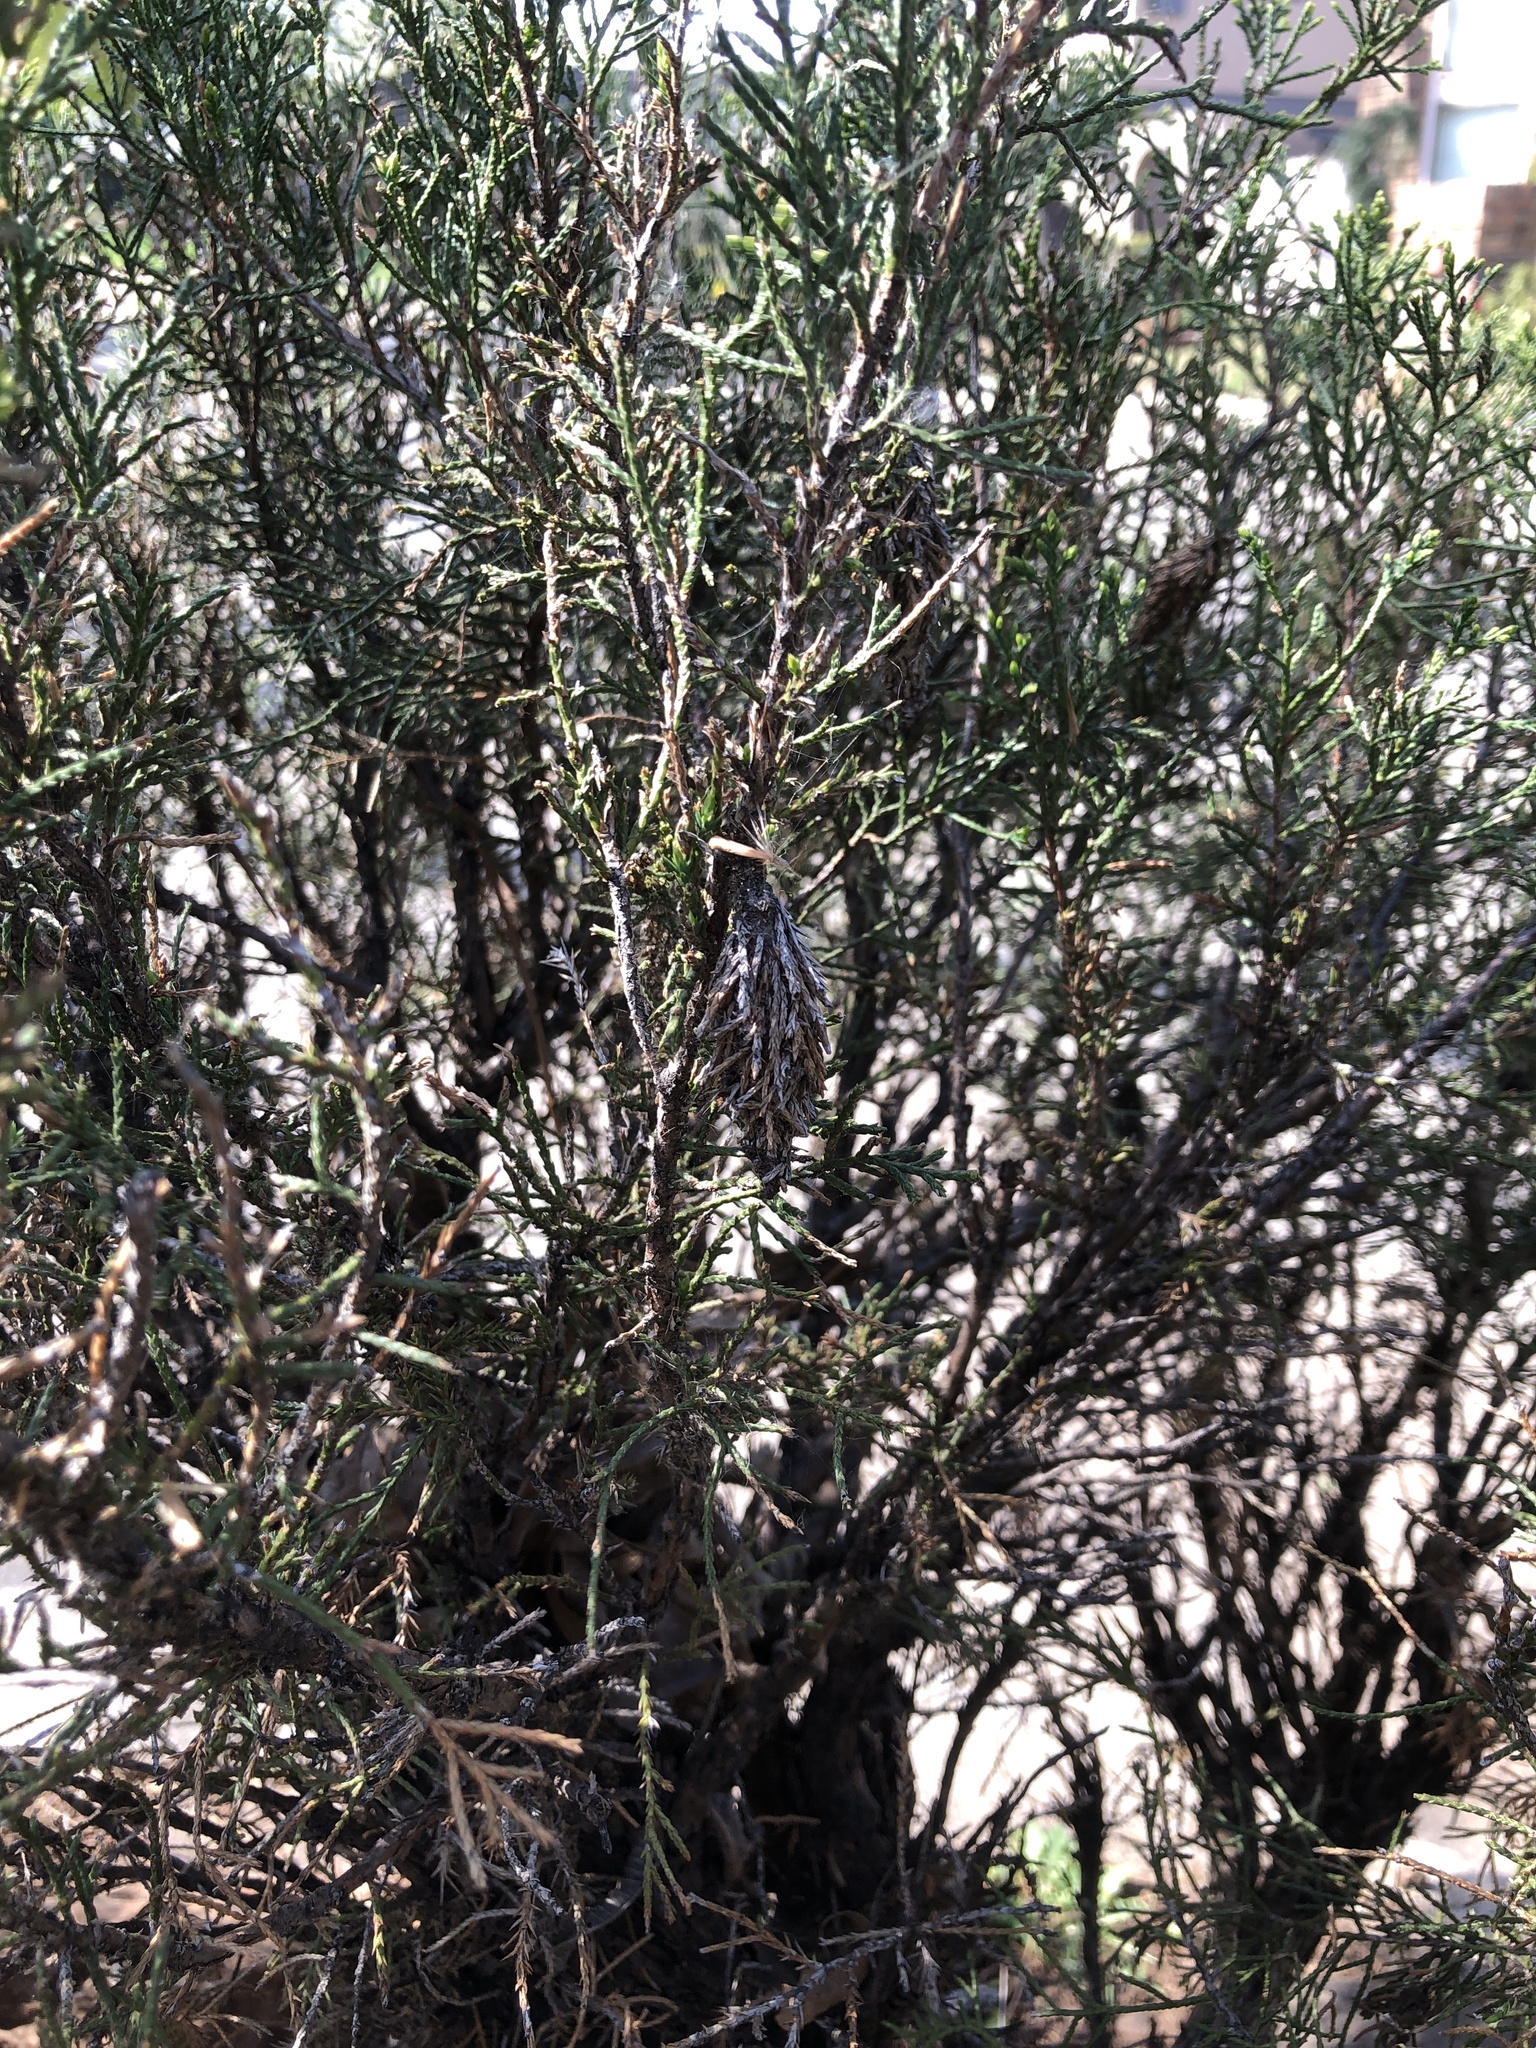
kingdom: Animalia
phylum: Arthropoda
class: Insecta
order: Lepidoptera
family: Psychidae
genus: Thyridopteryx
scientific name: Thyridopteryx ephemeraeformis
